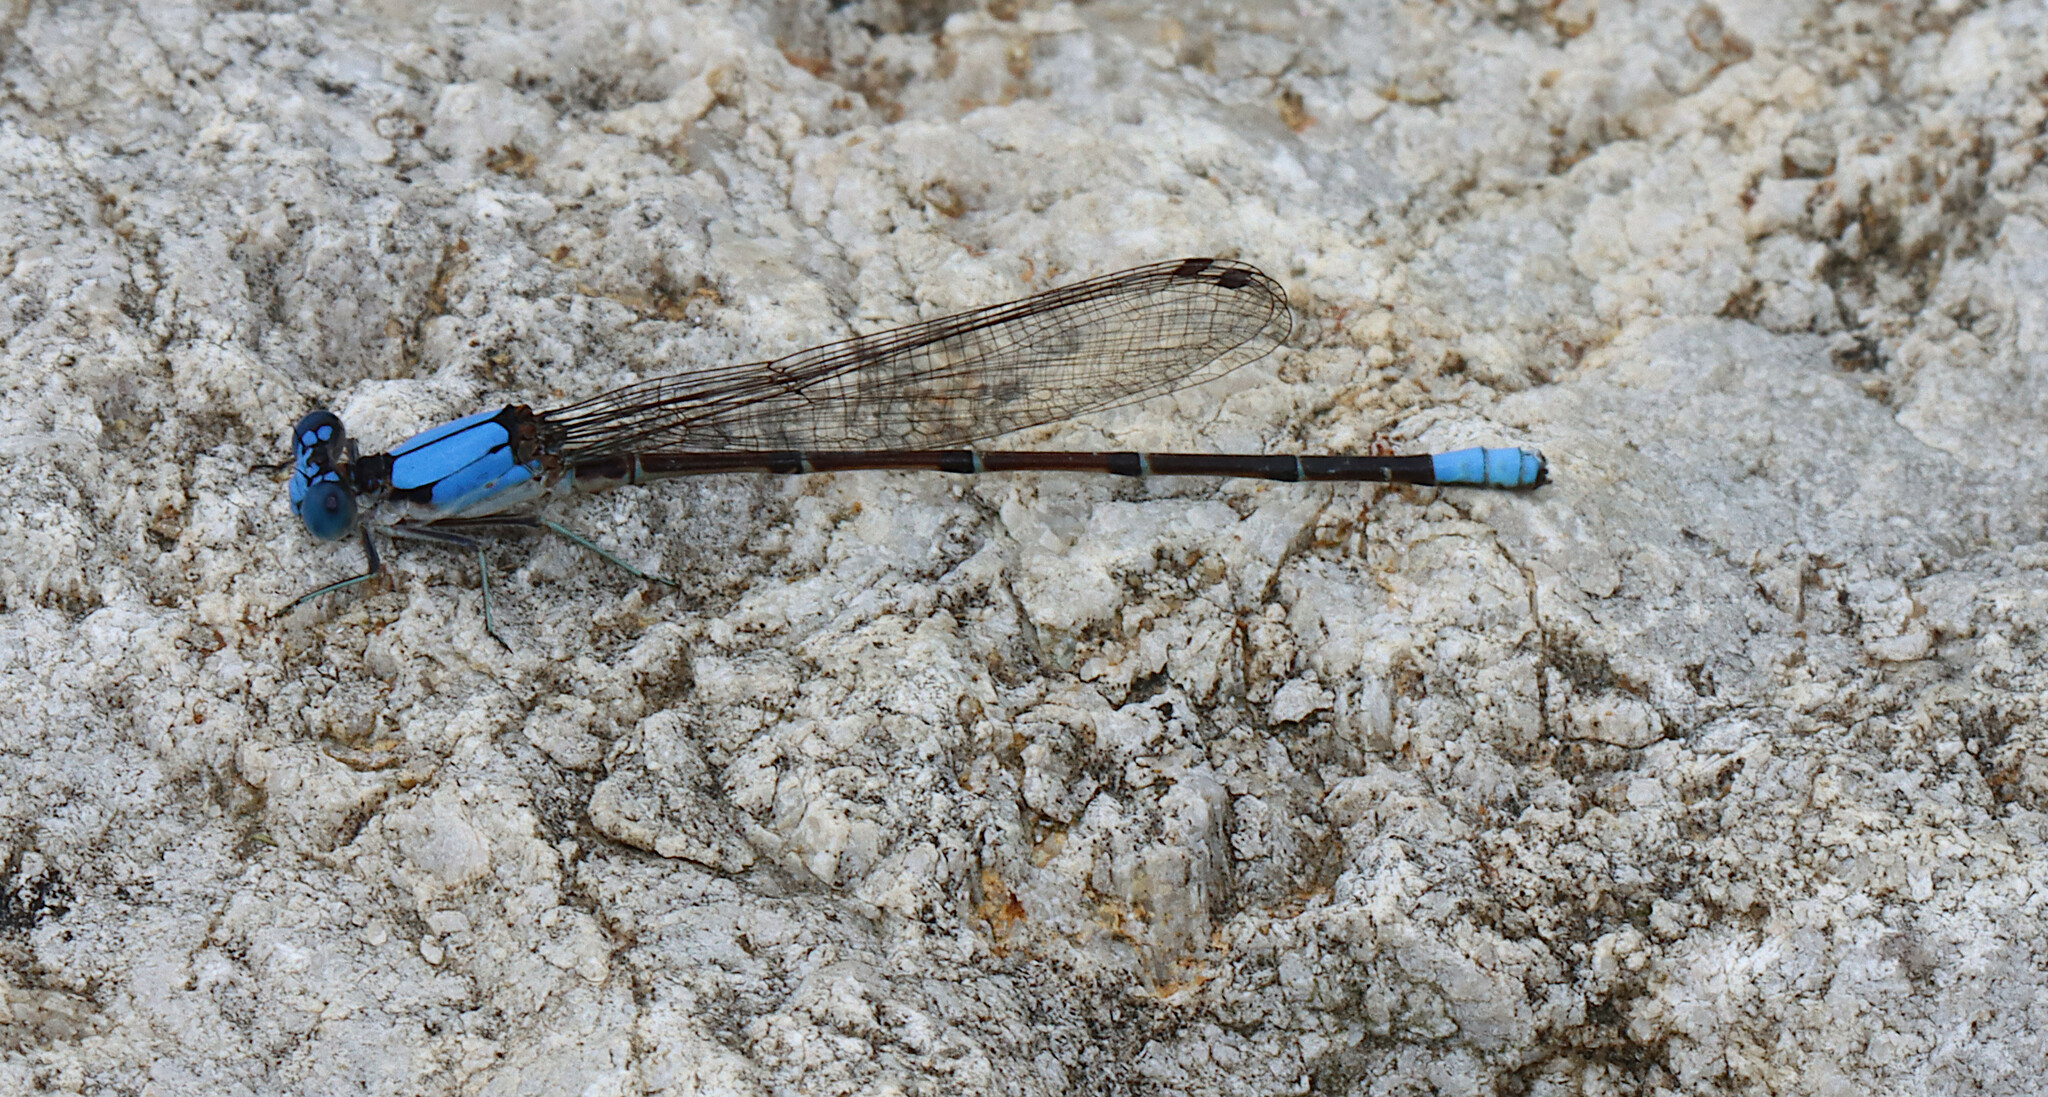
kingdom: Animalia
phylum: Arthropoda
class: Insecta
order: Odonata
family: Coenagrionidae
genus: Argia
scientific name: Argia apicalis
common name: Blue-fronted dancer
